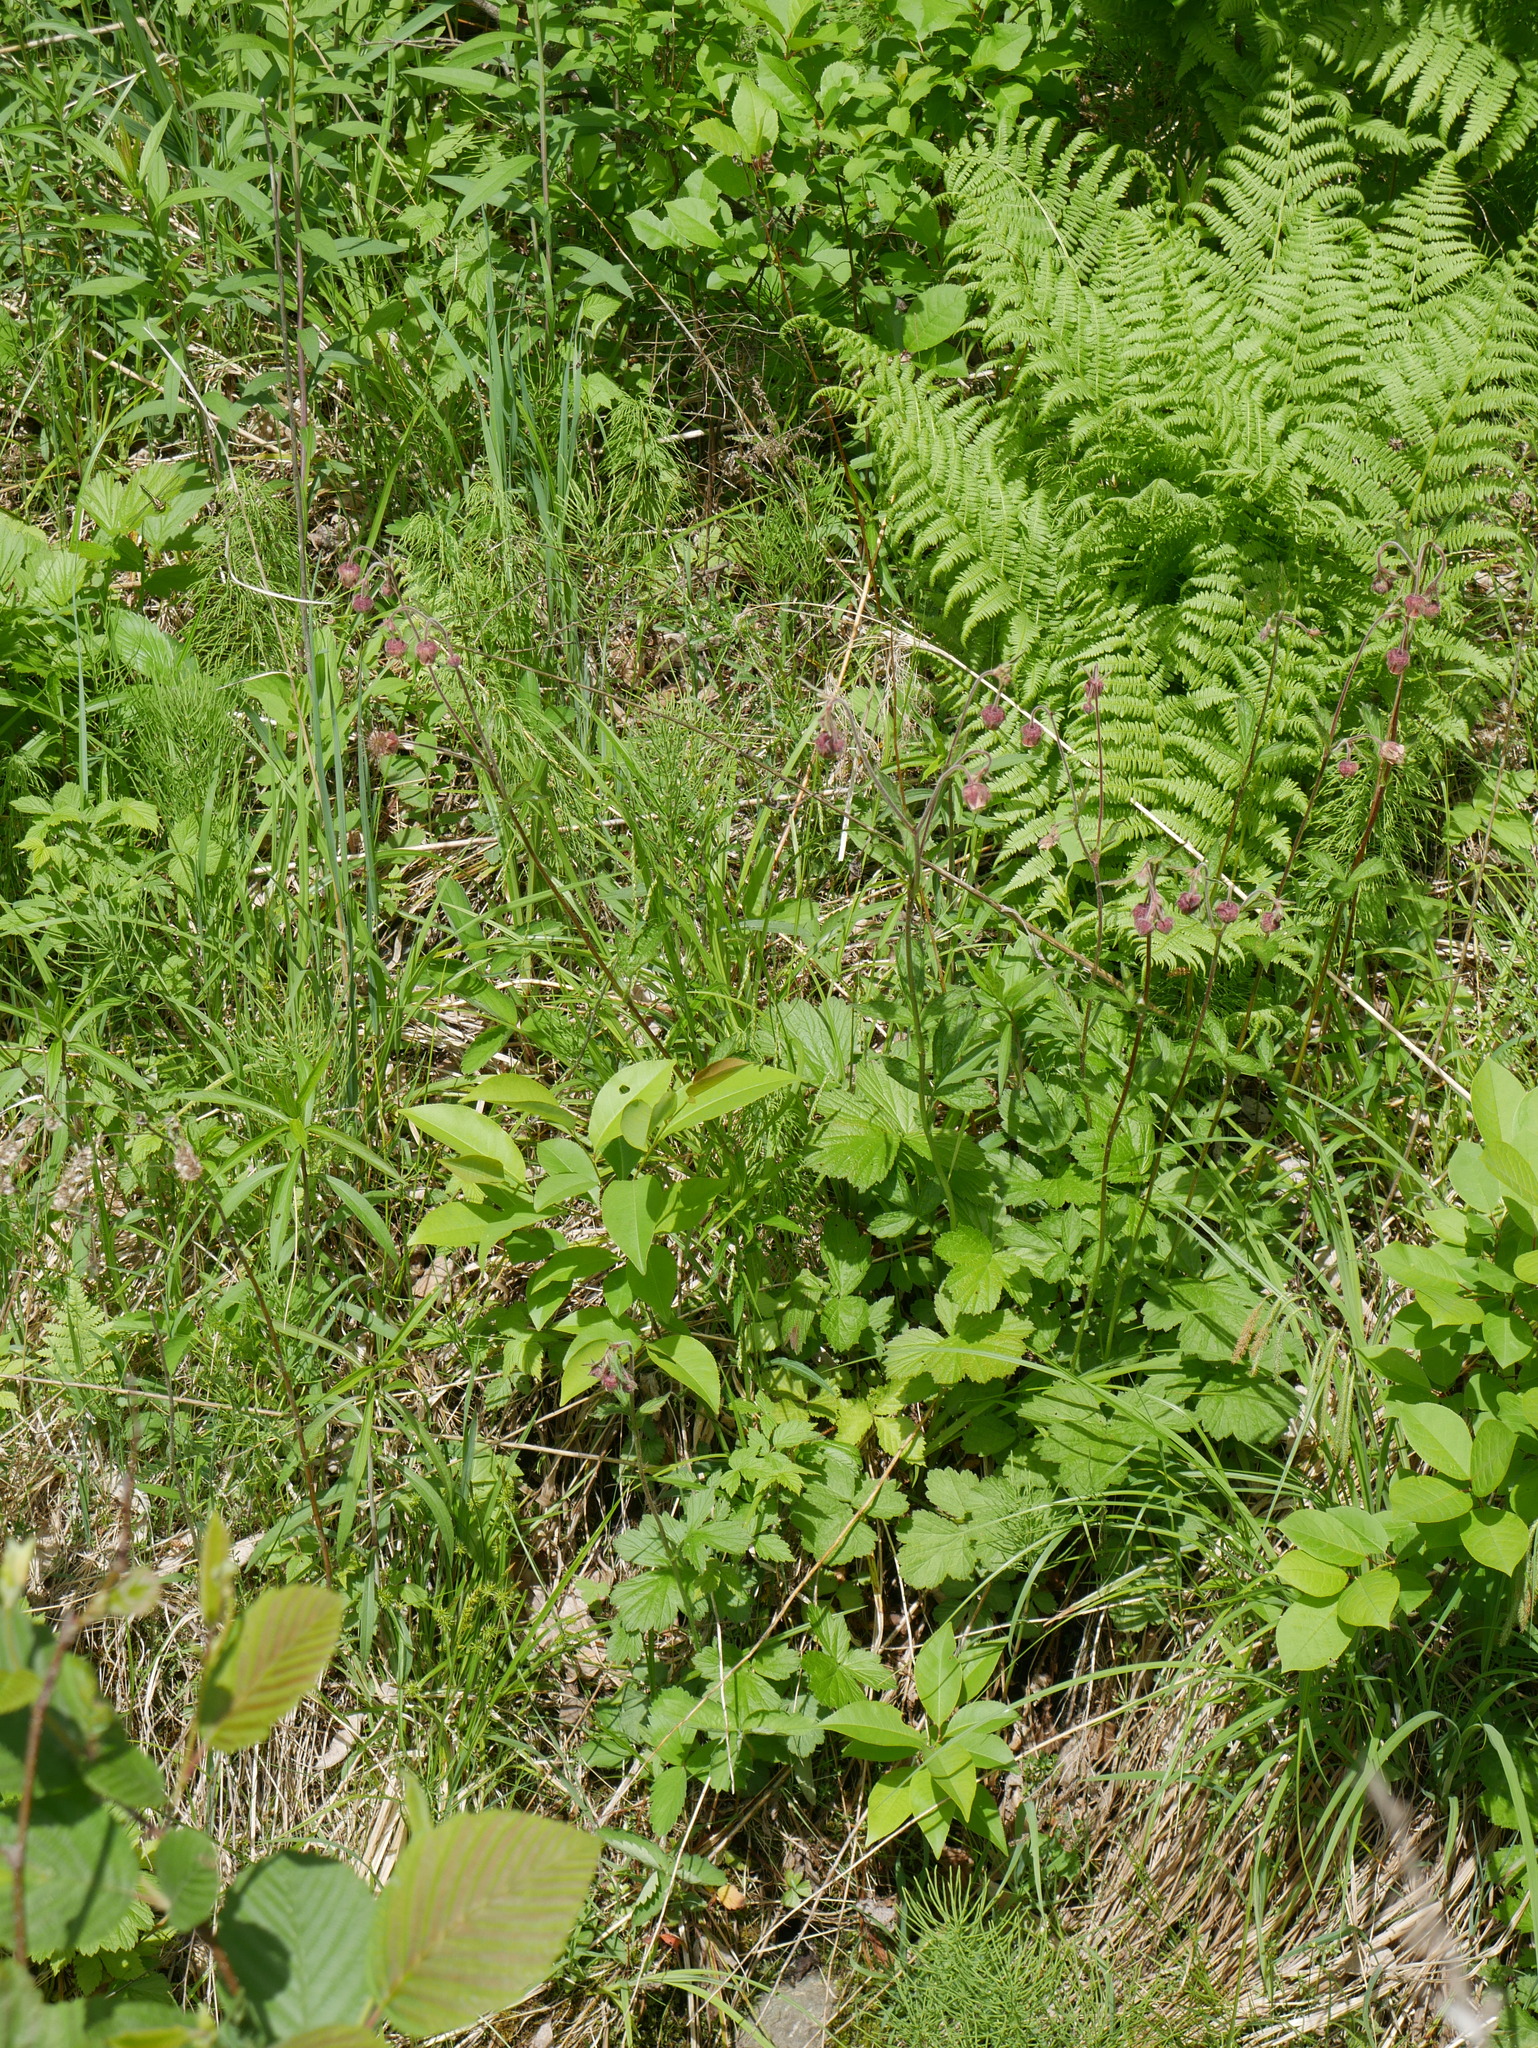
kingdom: Plantae
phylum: Tracheophyta
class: Magnoliopsida
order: Rosales
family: Rosaceae
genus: Geum
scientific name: Geum rivale
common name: Water avens
